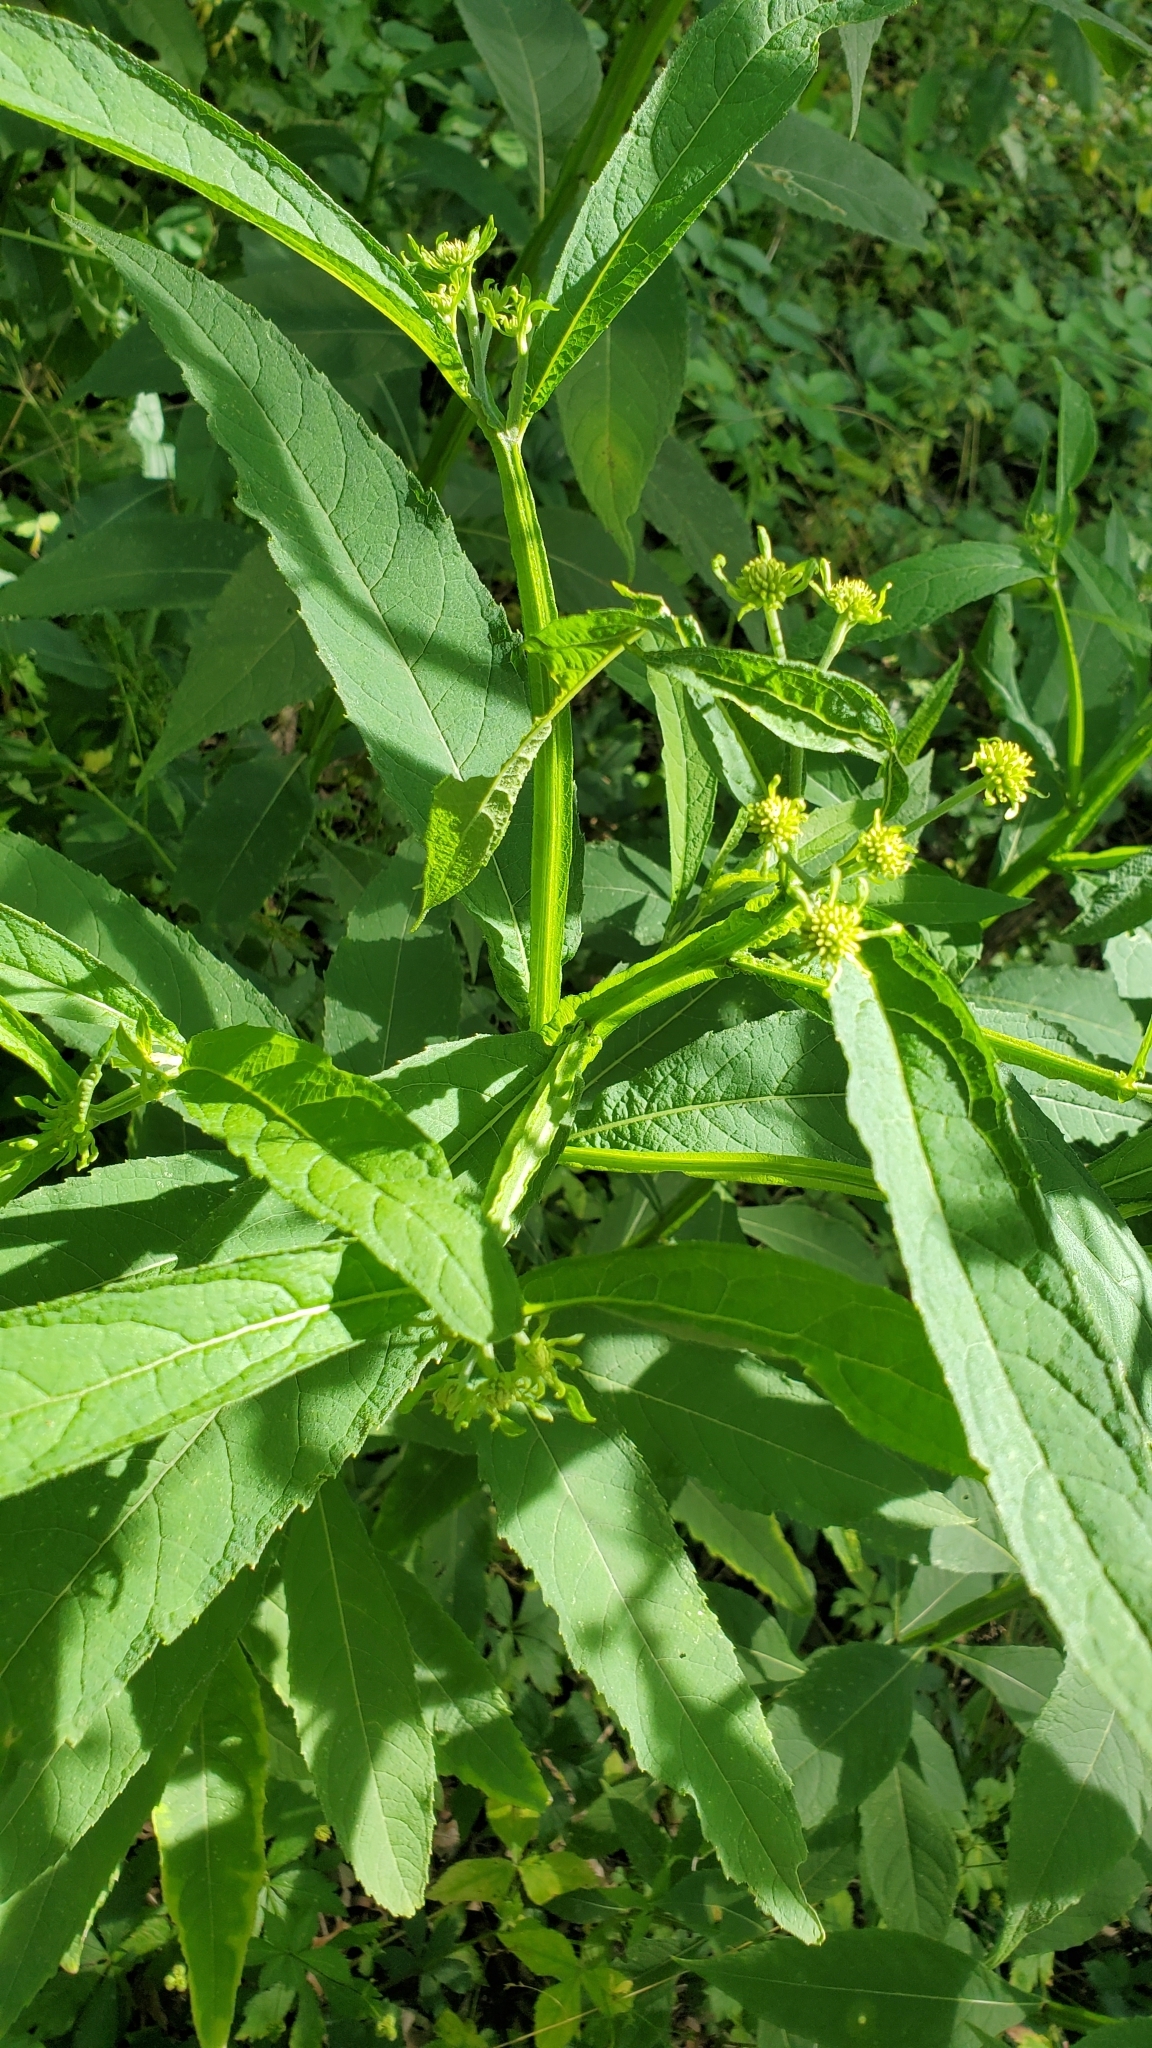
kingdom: Plantae
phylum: Tracheophyta
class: Magnoliopsida
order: Asterales
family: Asteraceae
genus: Verbesina
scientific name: Verbesina alternifolia
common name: Wingstem
